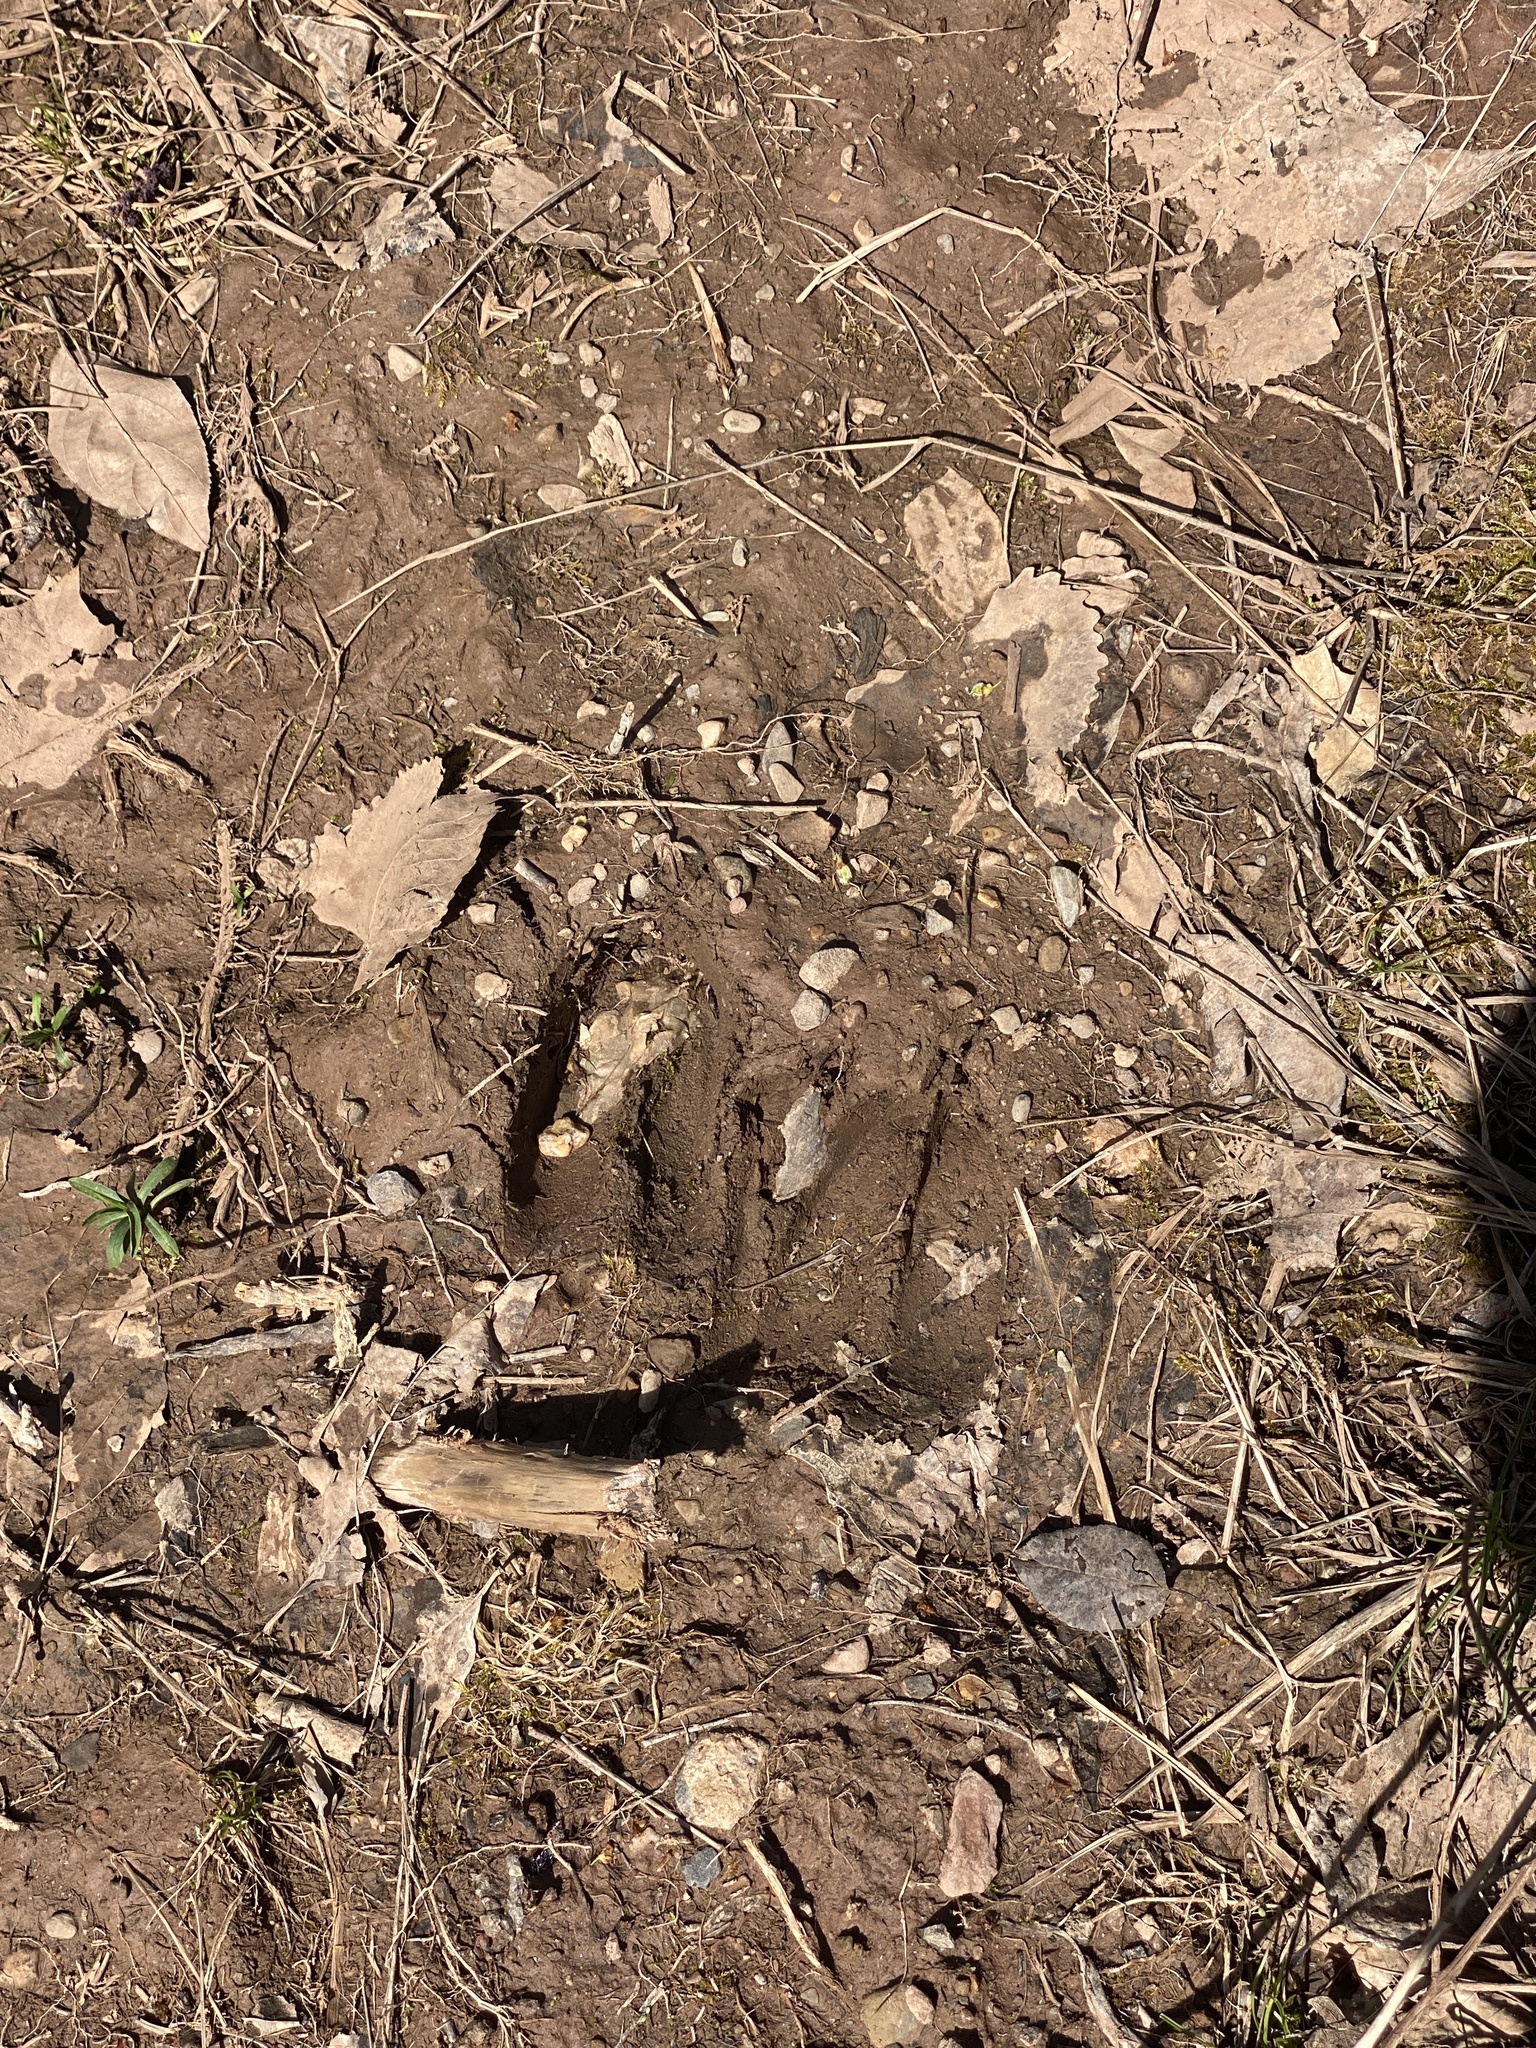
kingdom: Animalia
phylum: Chordata
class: Mammalia
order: Artiodactyla
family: Cervidae
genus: Odocoileus
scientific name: Odocoileus virginianus
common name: White-tailed deer
